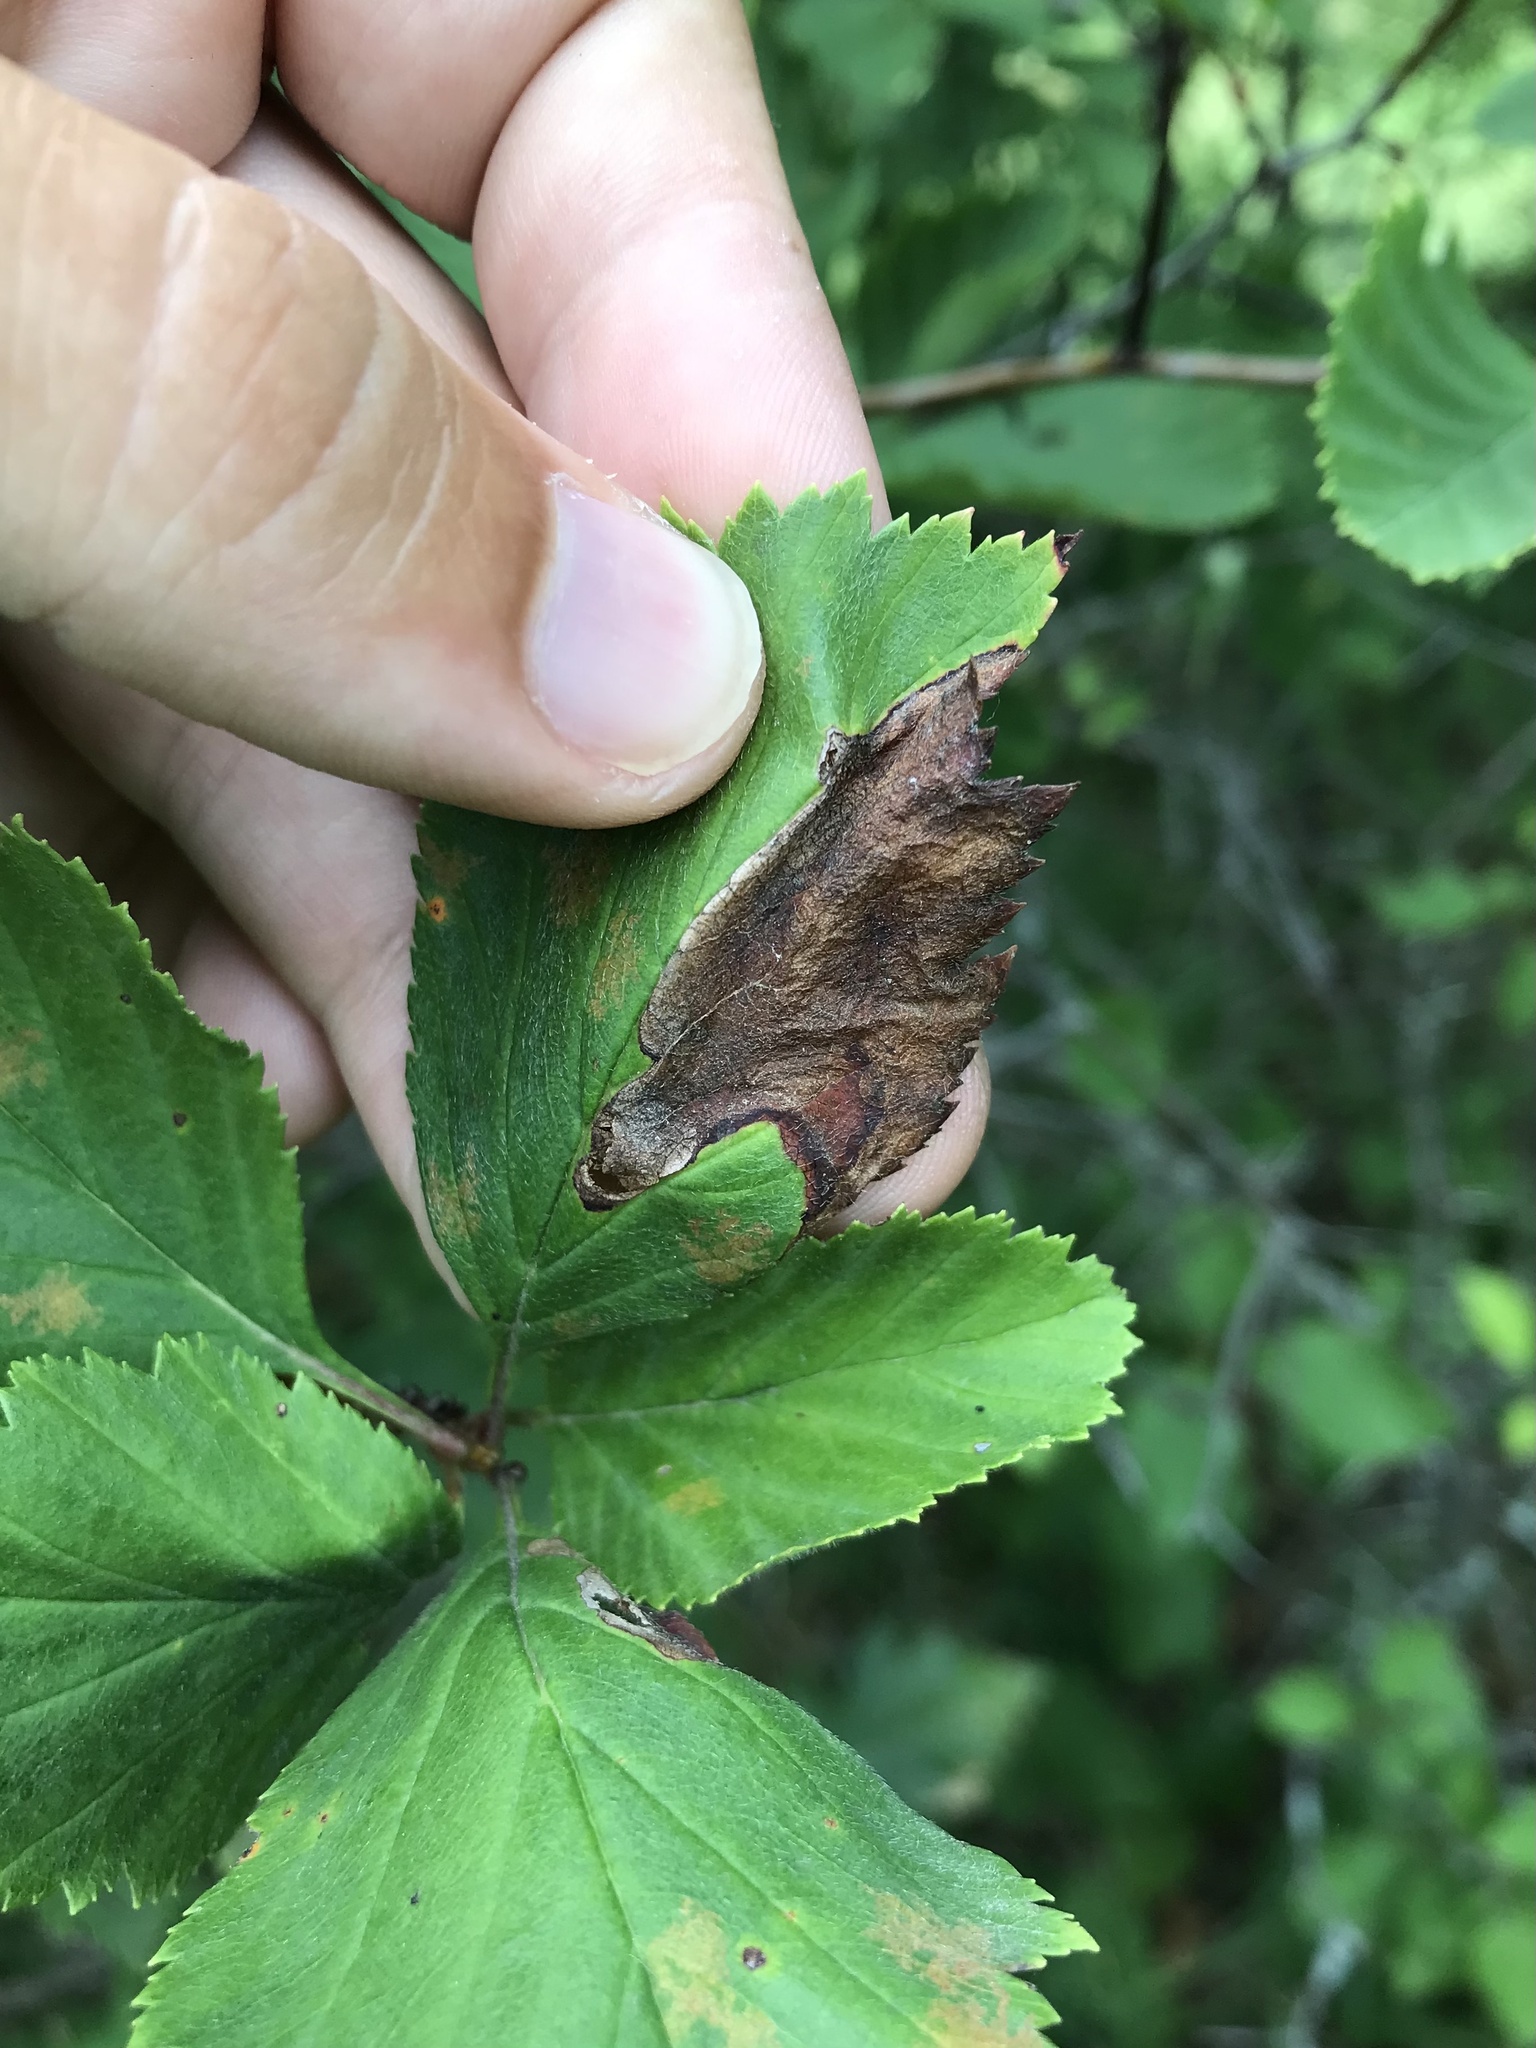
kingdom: Animalia
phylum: Arthropoda
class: Insecta
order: Hymenoptera
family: Tenthredinidae
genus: Profenusa
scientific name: Profenusa
